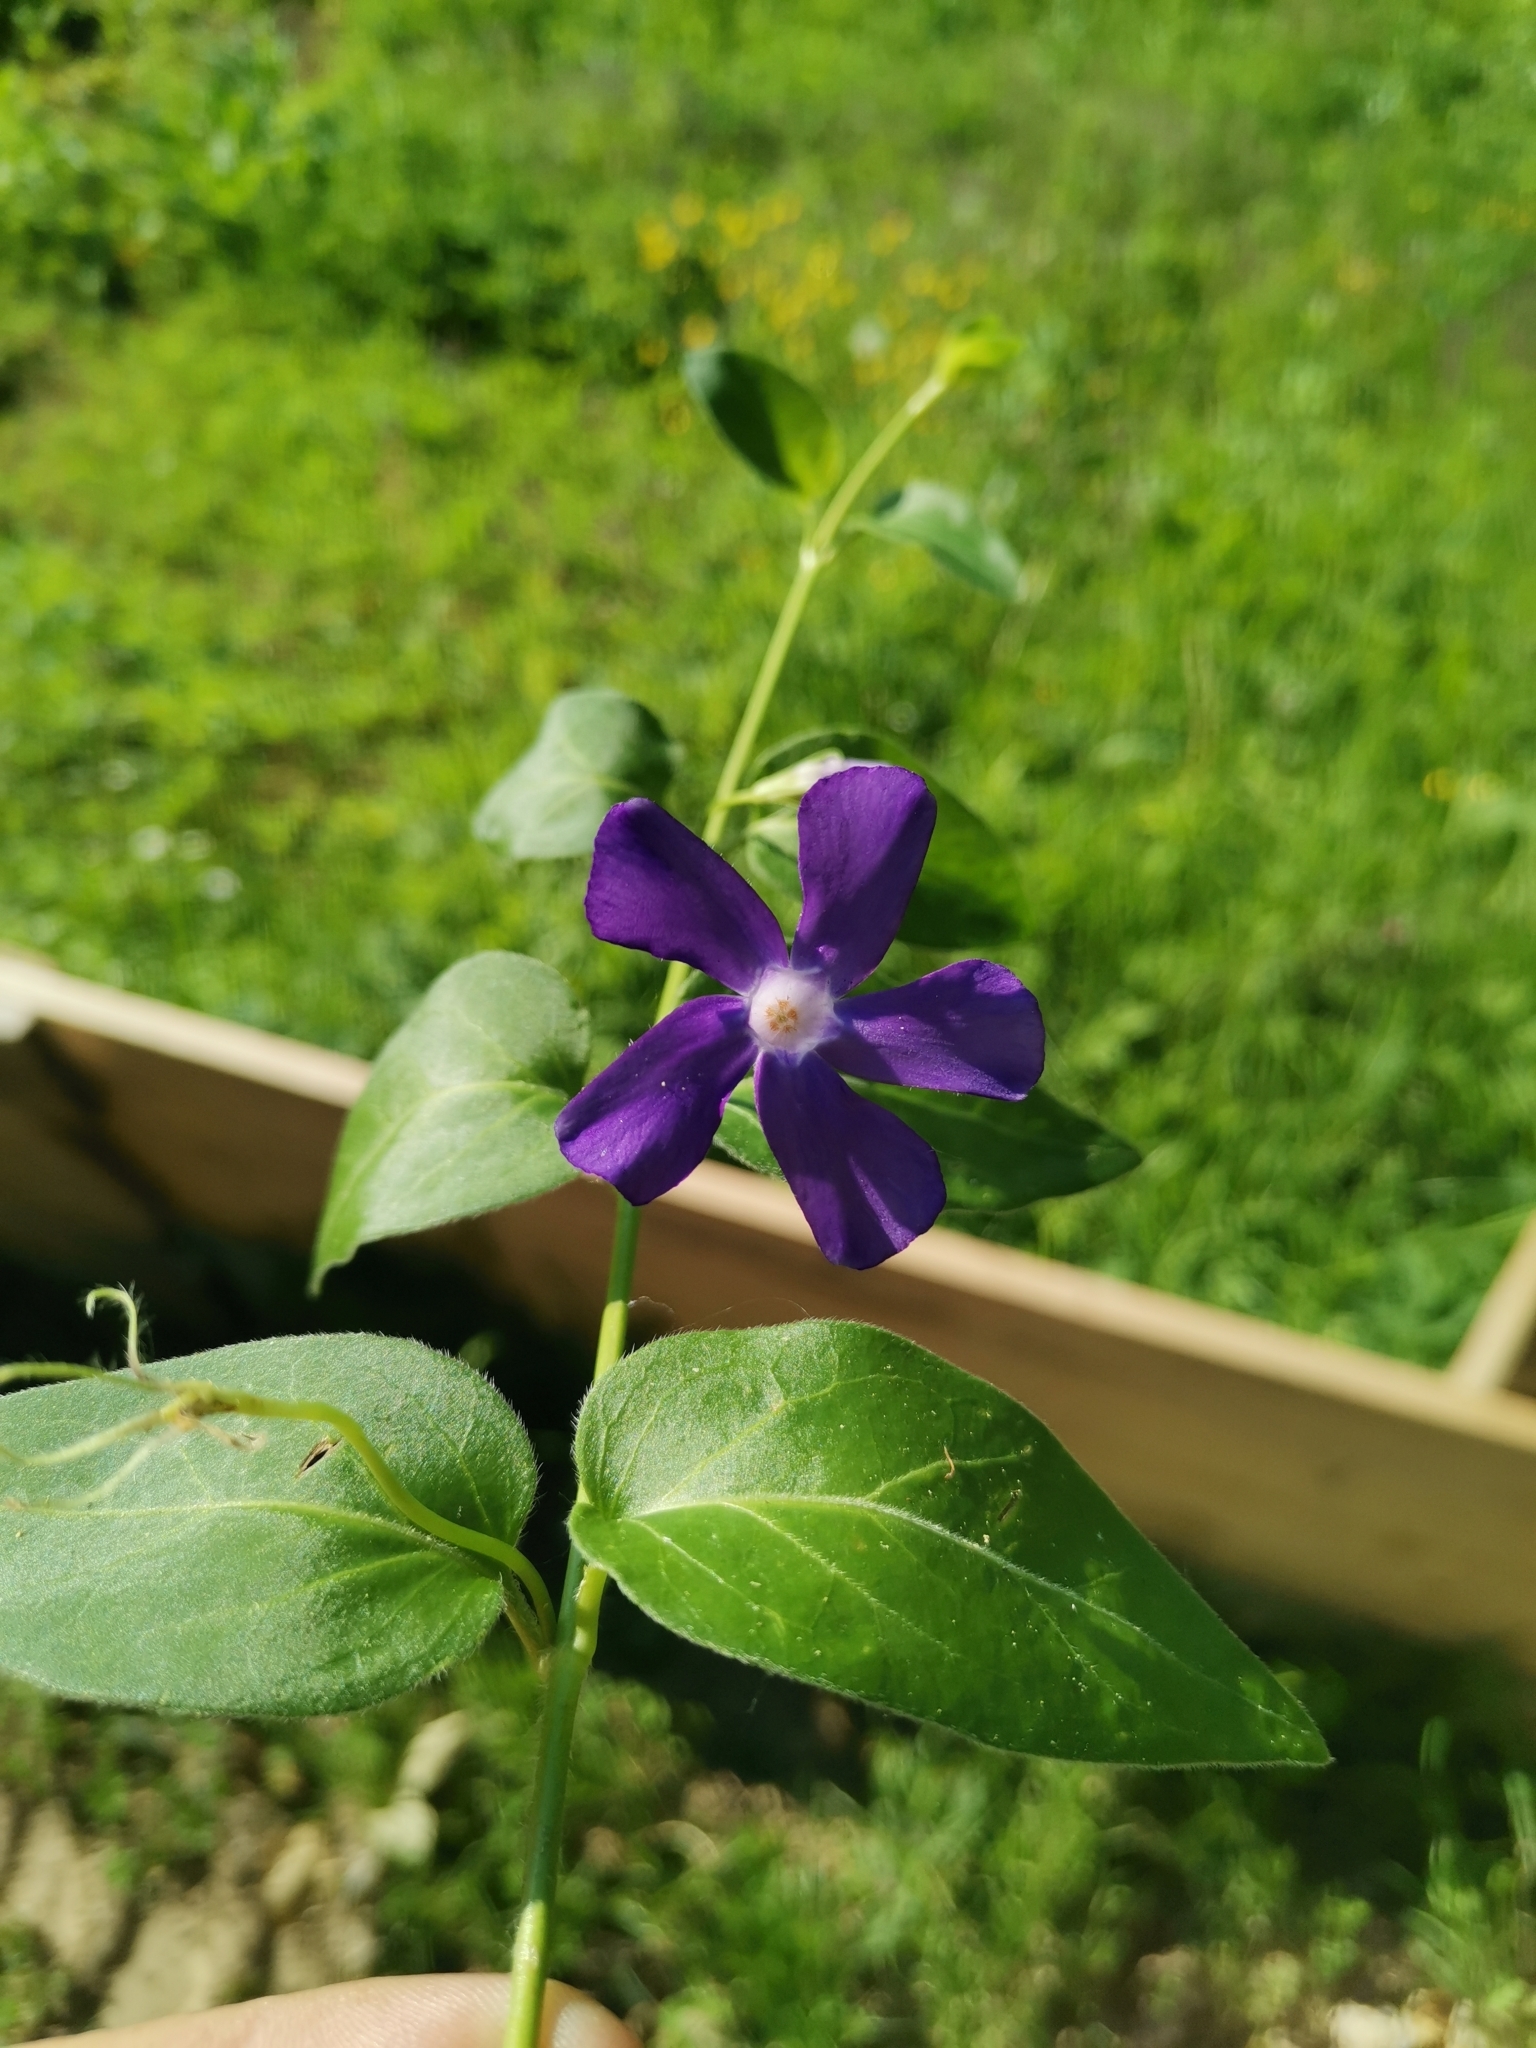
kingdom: Plantae
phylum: Tracheophyta
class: Magnoliopsida
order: Gentianales
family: Apocynaceae
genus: Vinca
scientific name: Vinca major
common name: Greater periwinkle
